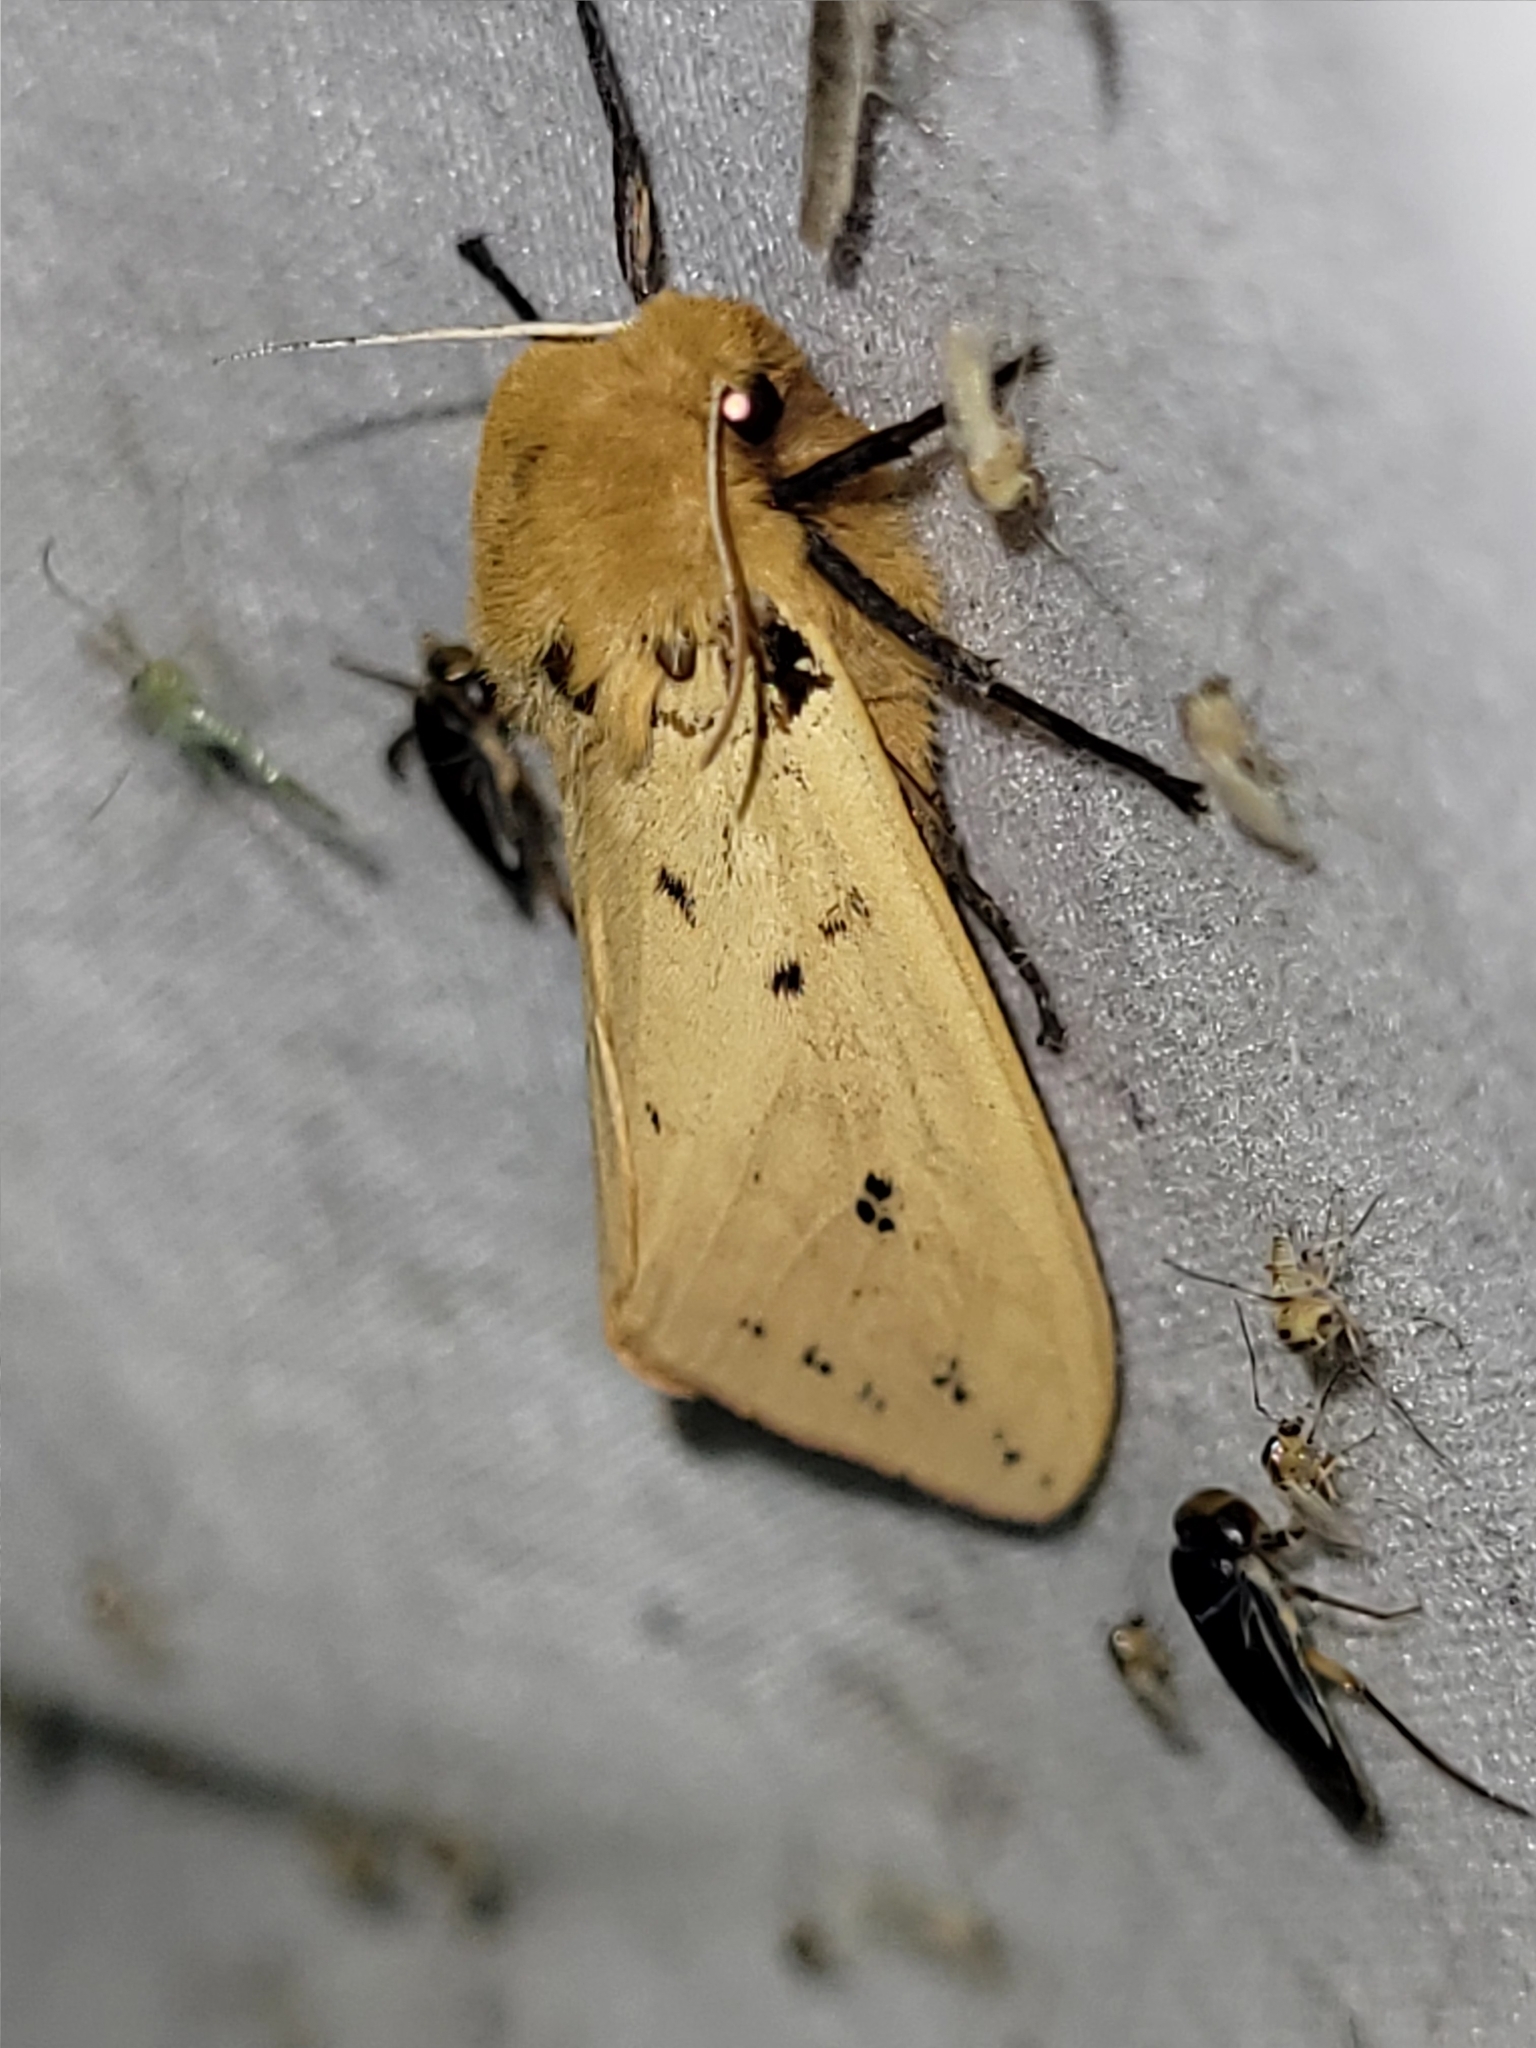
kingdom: Animalia
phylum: Arthropoda
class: Insecta
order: Lepidoptera
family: Erebidae
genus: Pyrrharctia
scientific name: Pyrrharctia isabella
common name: Isabella tiger moth
